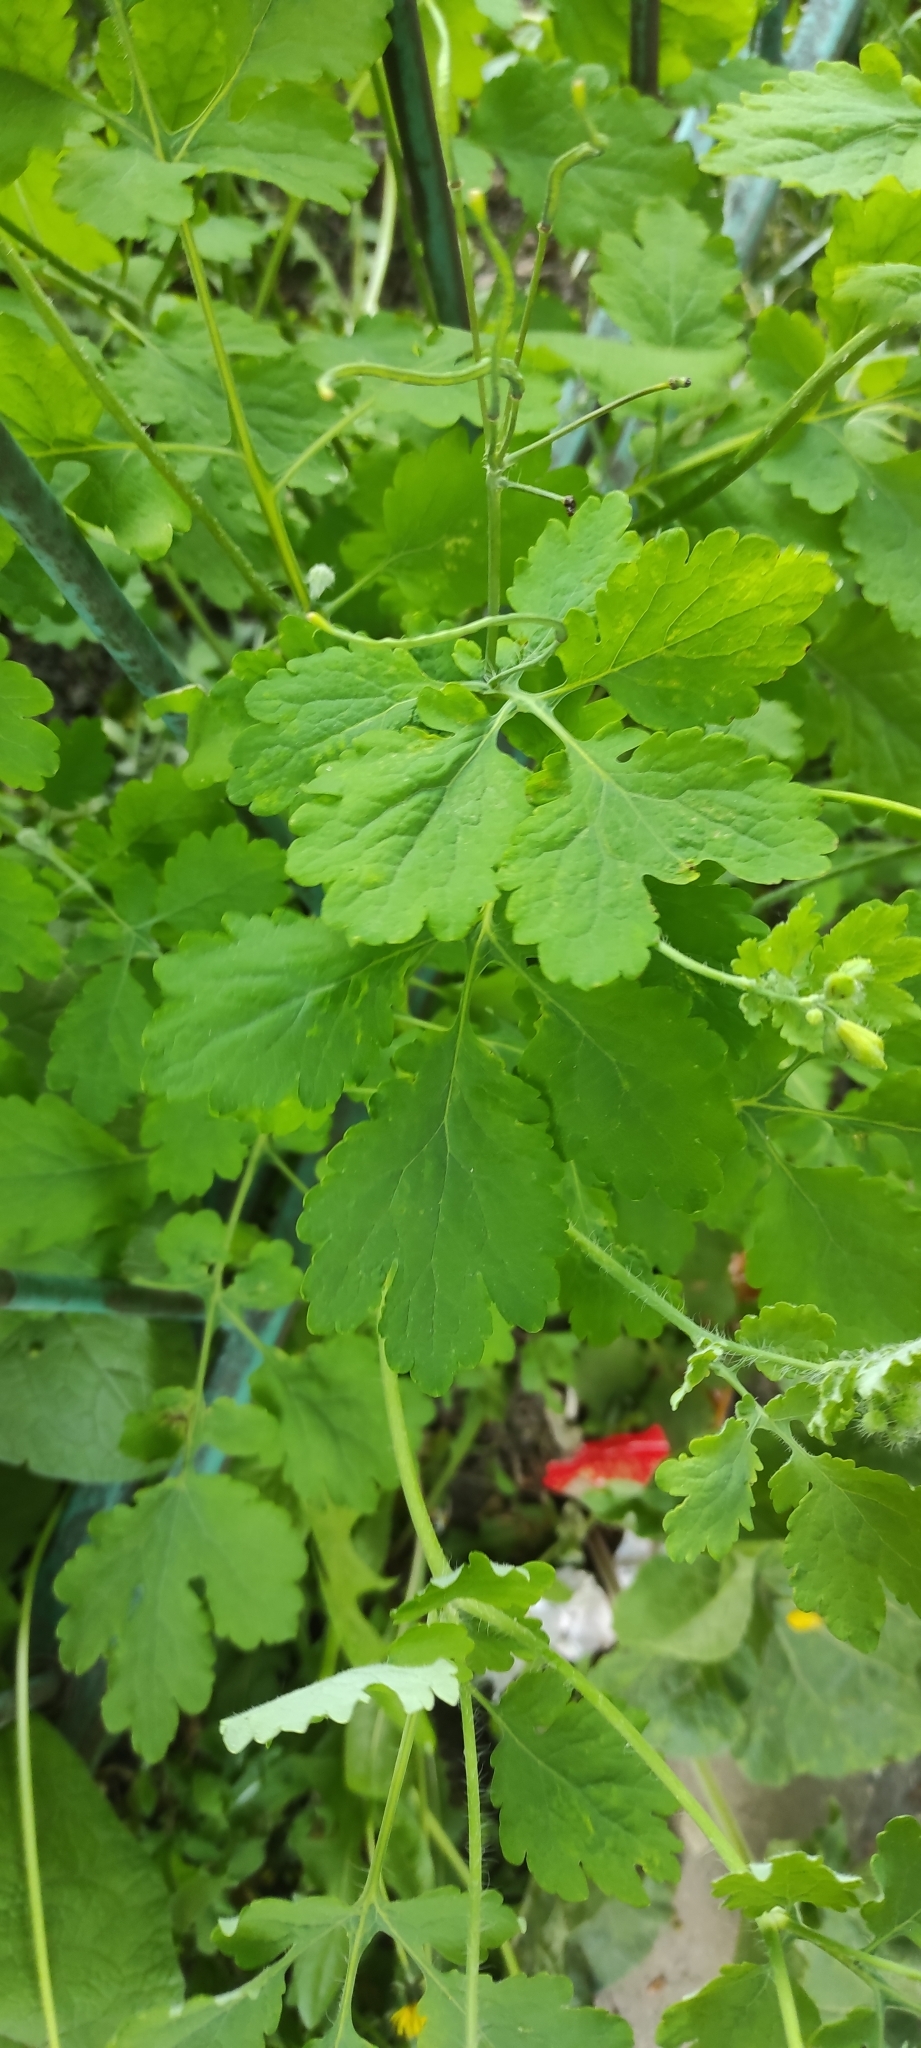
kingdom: Plantae
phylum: Tracheophyta
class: Magnoliopsida
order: Ranunculales
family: Papaveraceae
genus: Chelidonium
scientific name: Chelidonium majus
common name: Greater celandine
